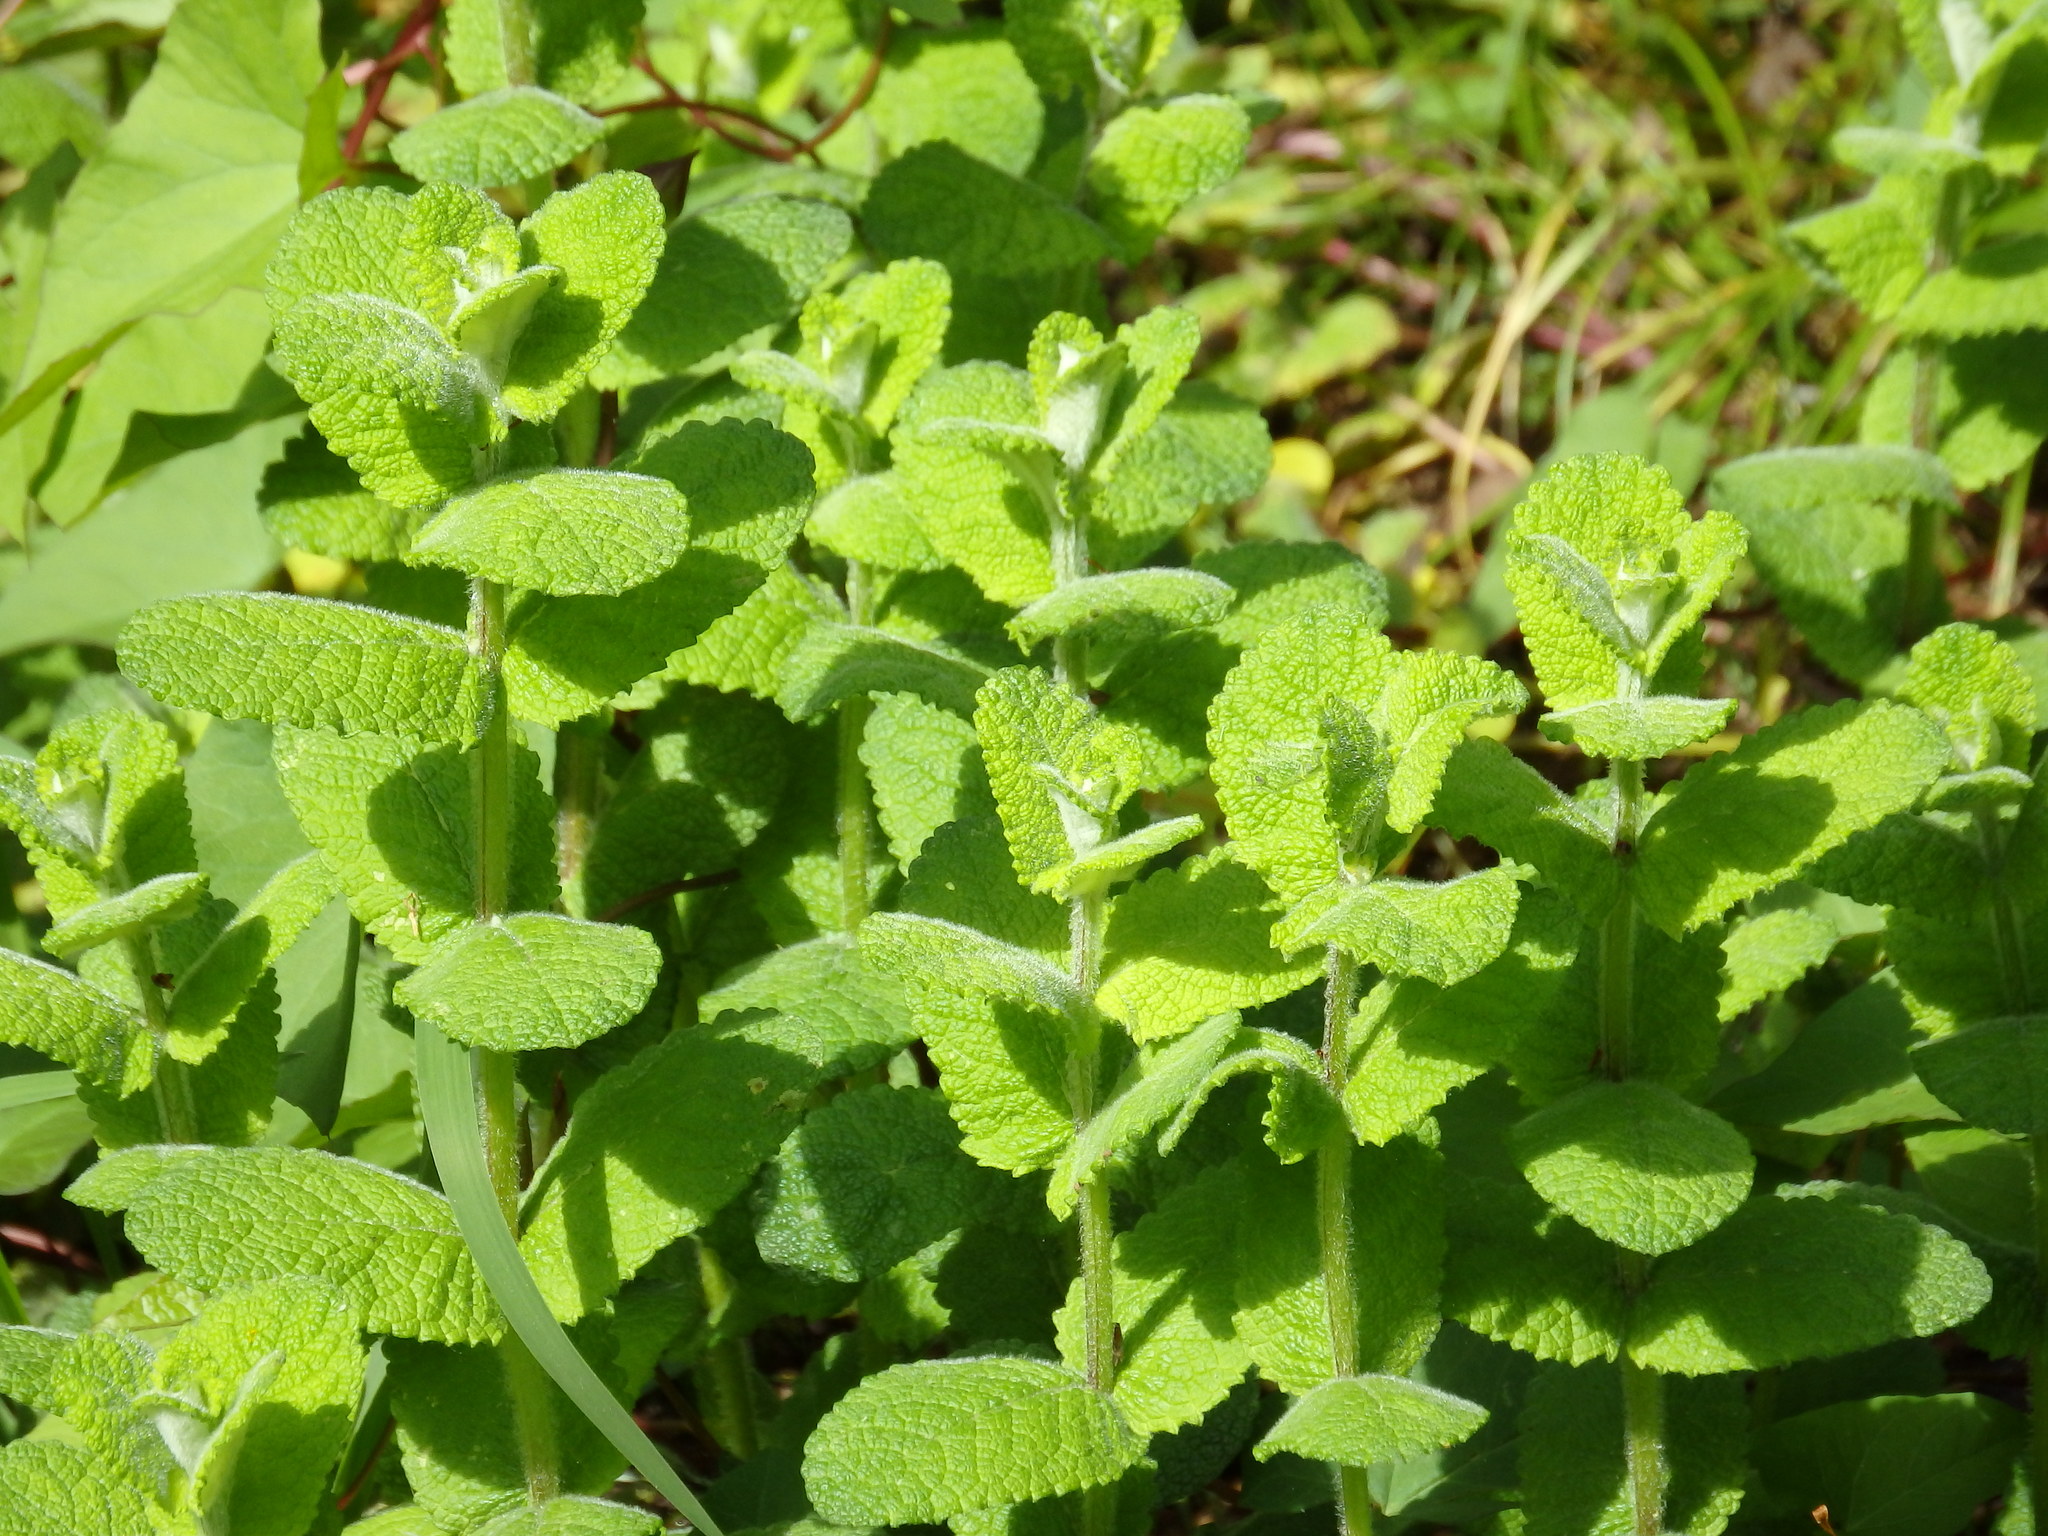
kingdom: Plantae
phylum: Tracheophyta
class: Magnoliopsida
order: Lamiales
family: Lamiaceae
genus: Mentha
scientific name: Mentha suaveolens
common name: Apple mint
